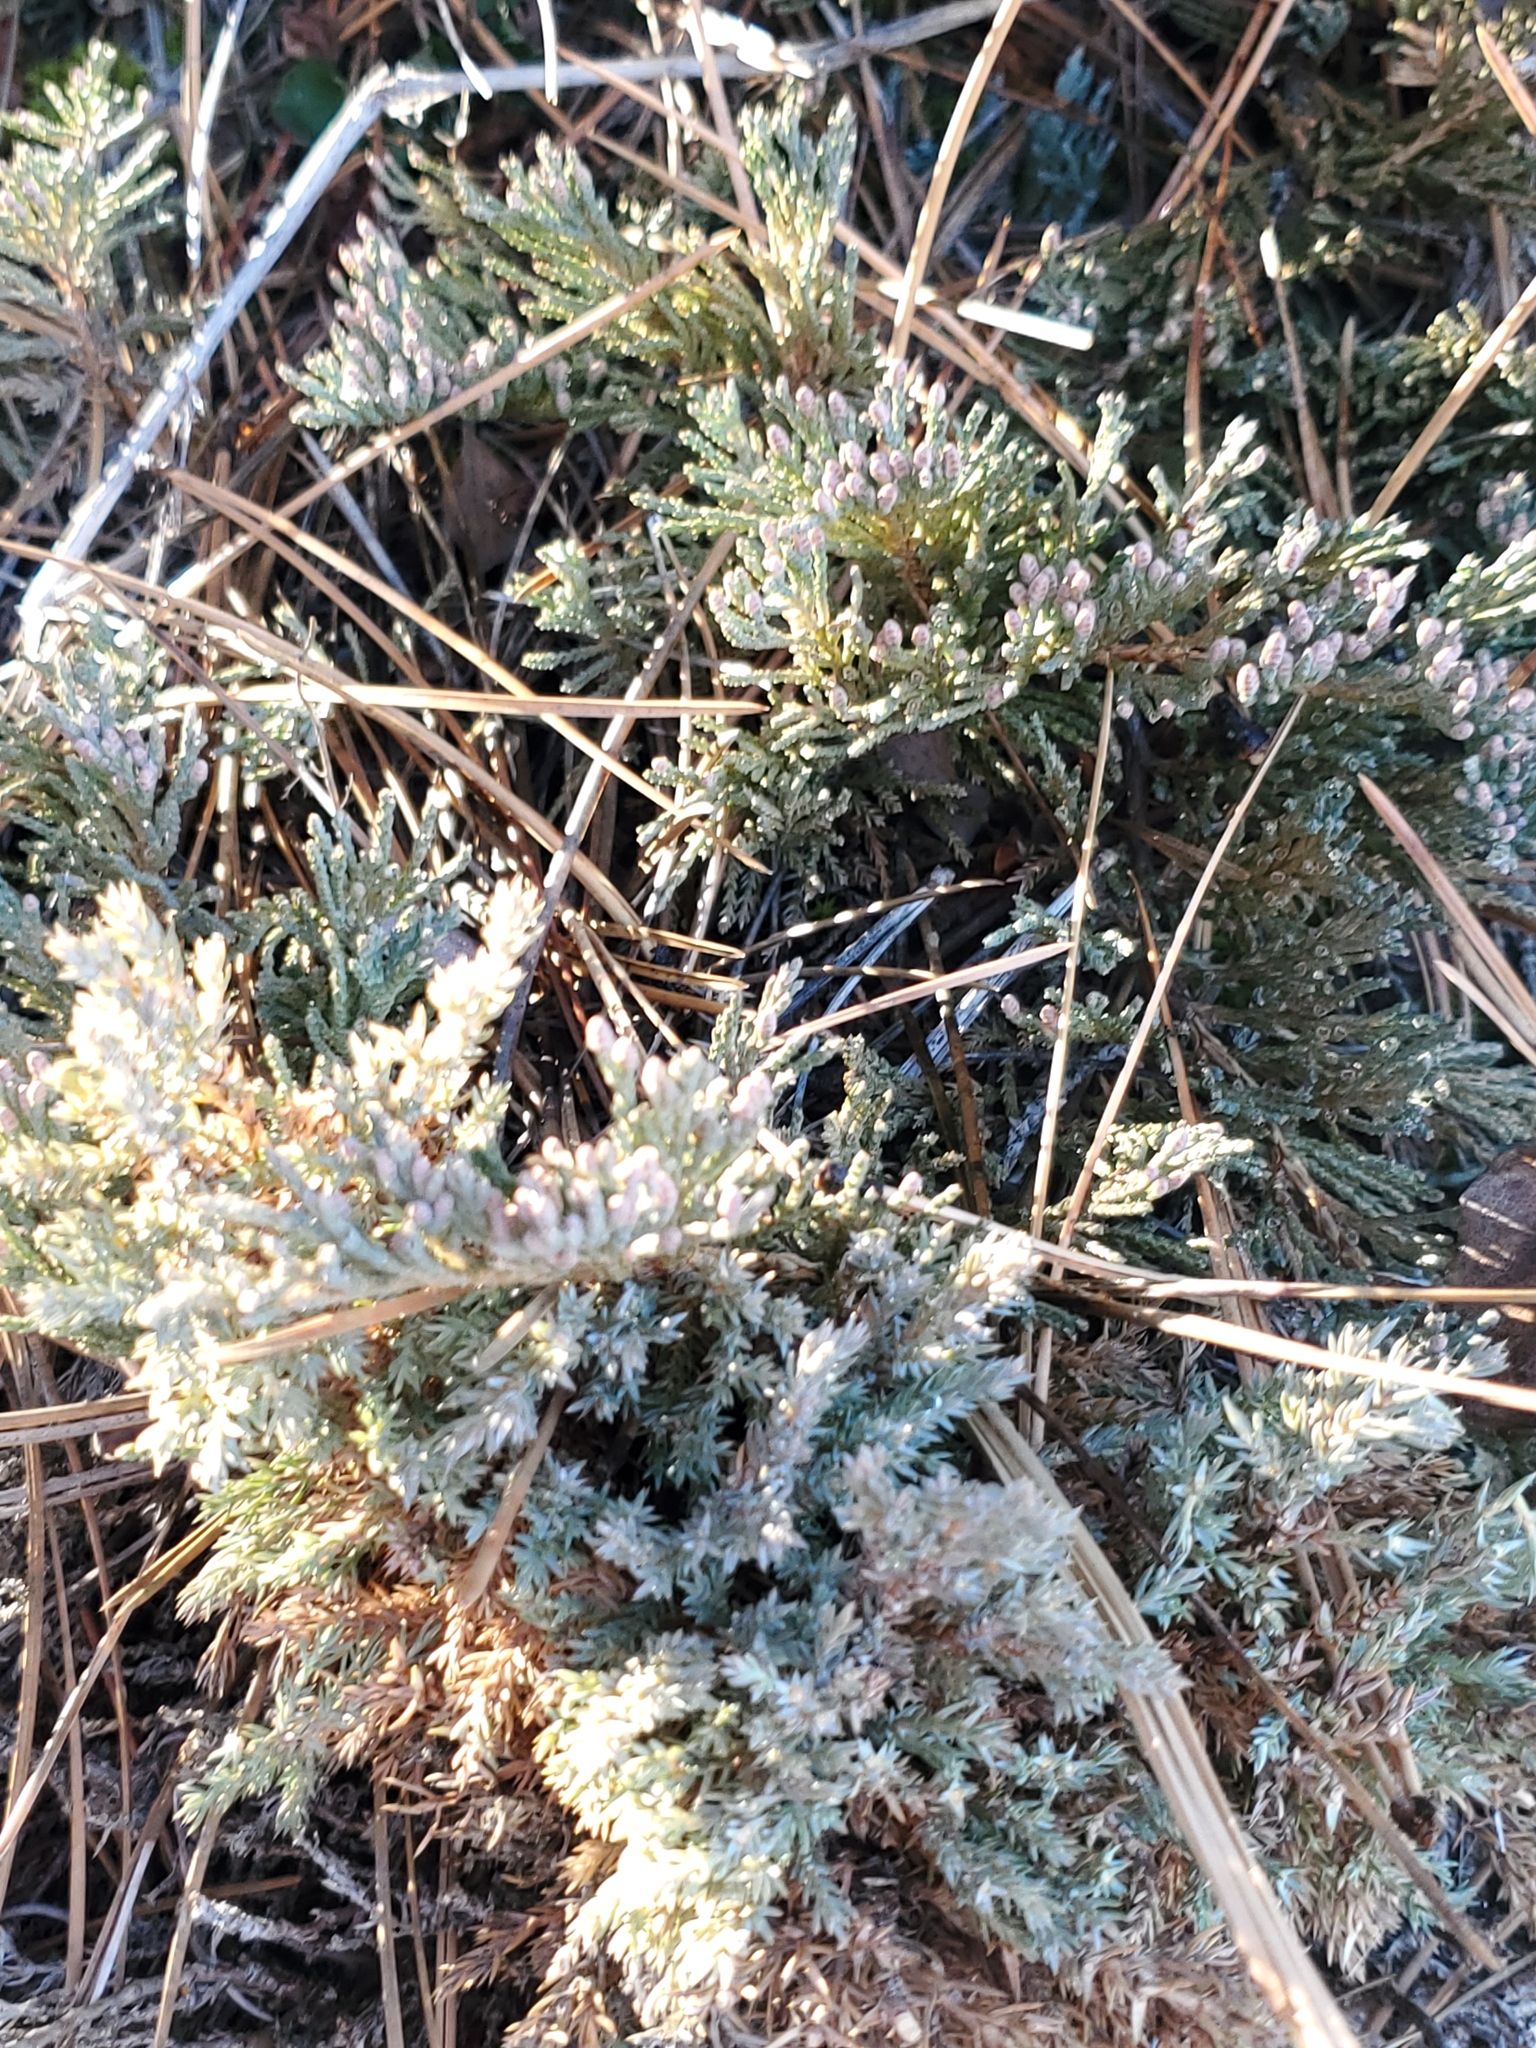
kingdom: Plantae
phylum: Tracheophyta
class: Pinopsida
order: Pinales
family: Cupressaceae
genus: Juniperus
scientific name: Juniperus horizontalis
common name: Creeping juniper
